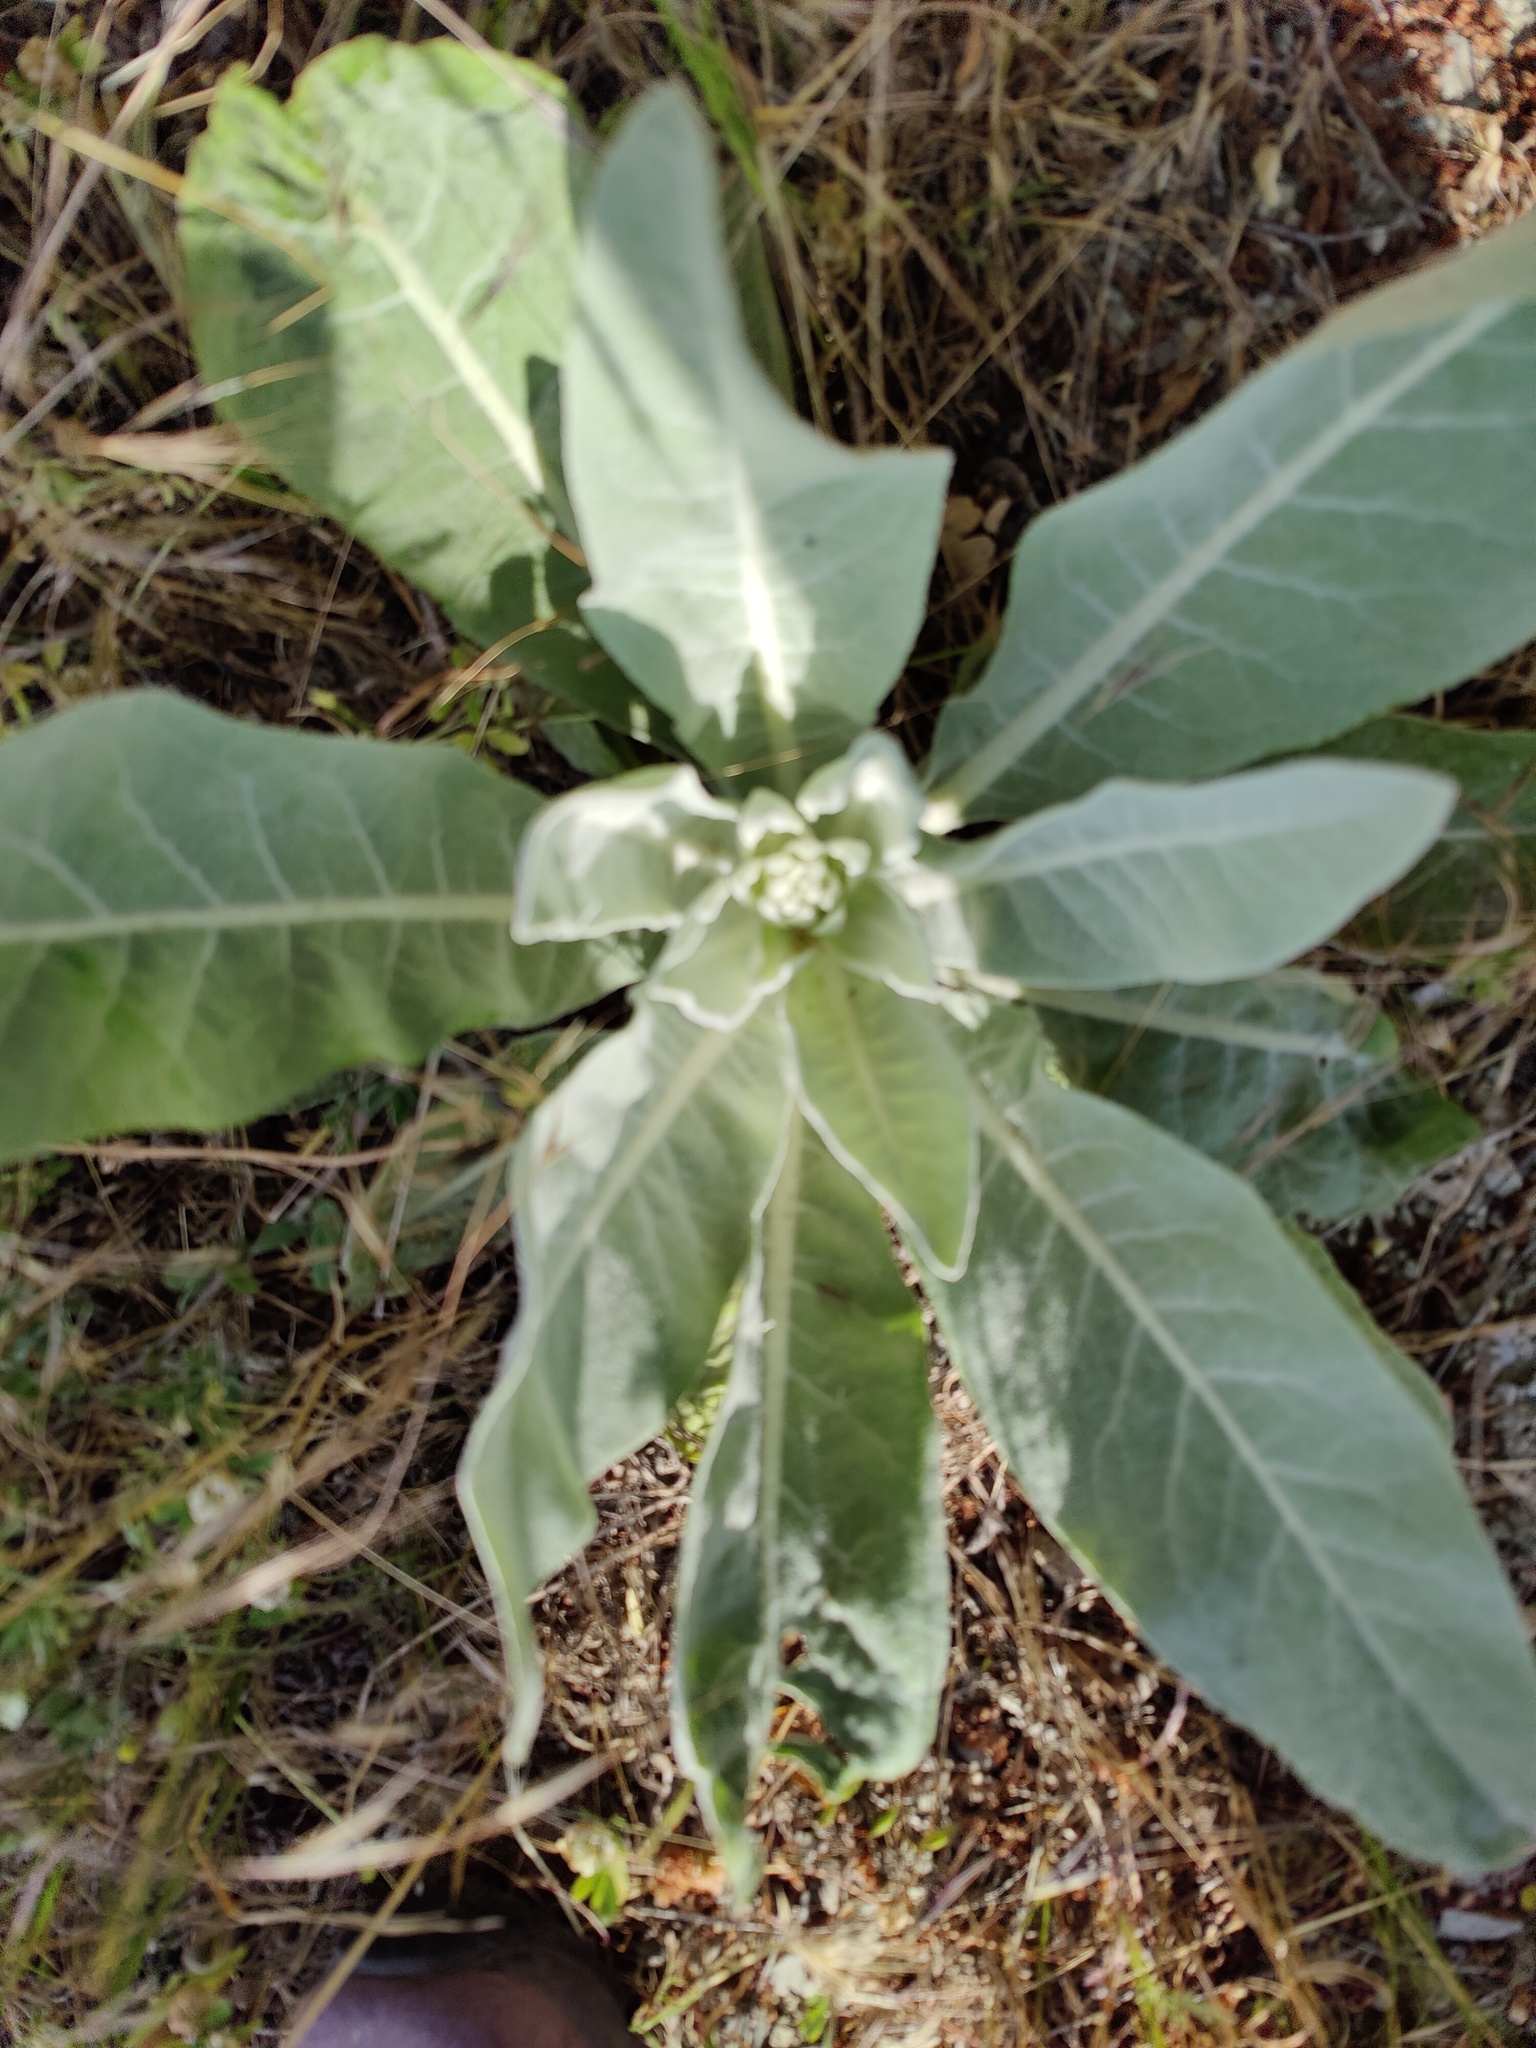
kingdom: Plantae
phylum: Tracheophyta
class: Magnoliopsida
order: Lamiales
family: Scrophulariaceae
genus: Verbascum
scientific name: Verbascum gnaphalodes
